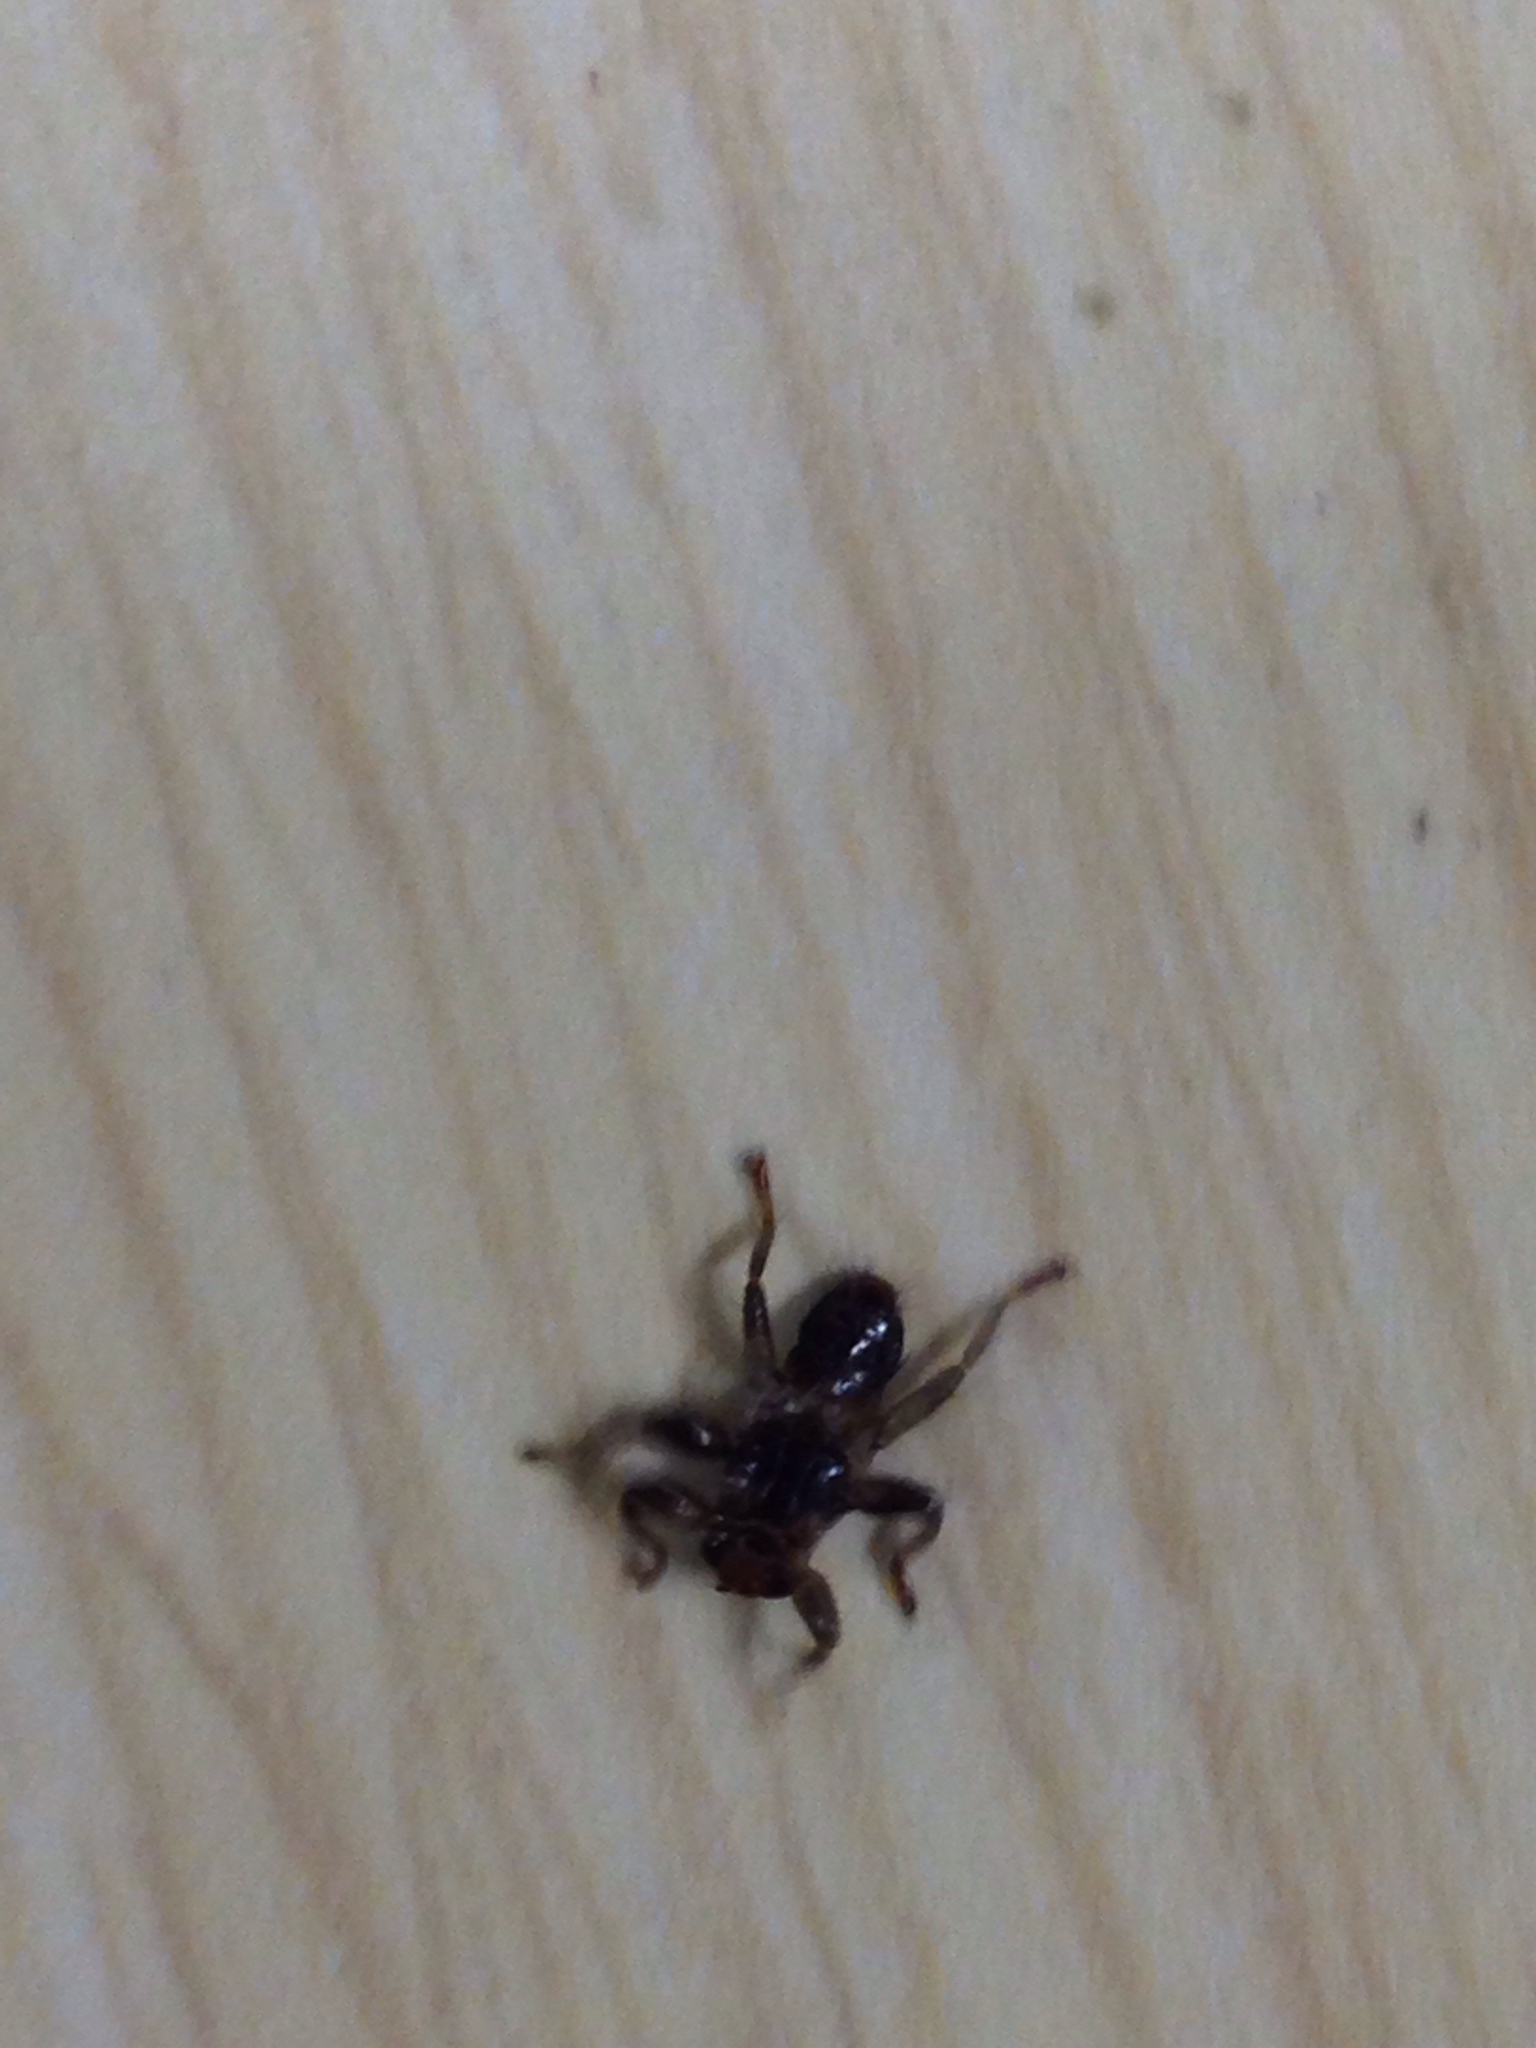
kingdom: Animalia
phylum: Arthropoda
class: Insecta
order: Diptera
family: Hippoboscidae
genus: Lipoptena
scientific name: Lipoptena cervi
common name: Deer ked
